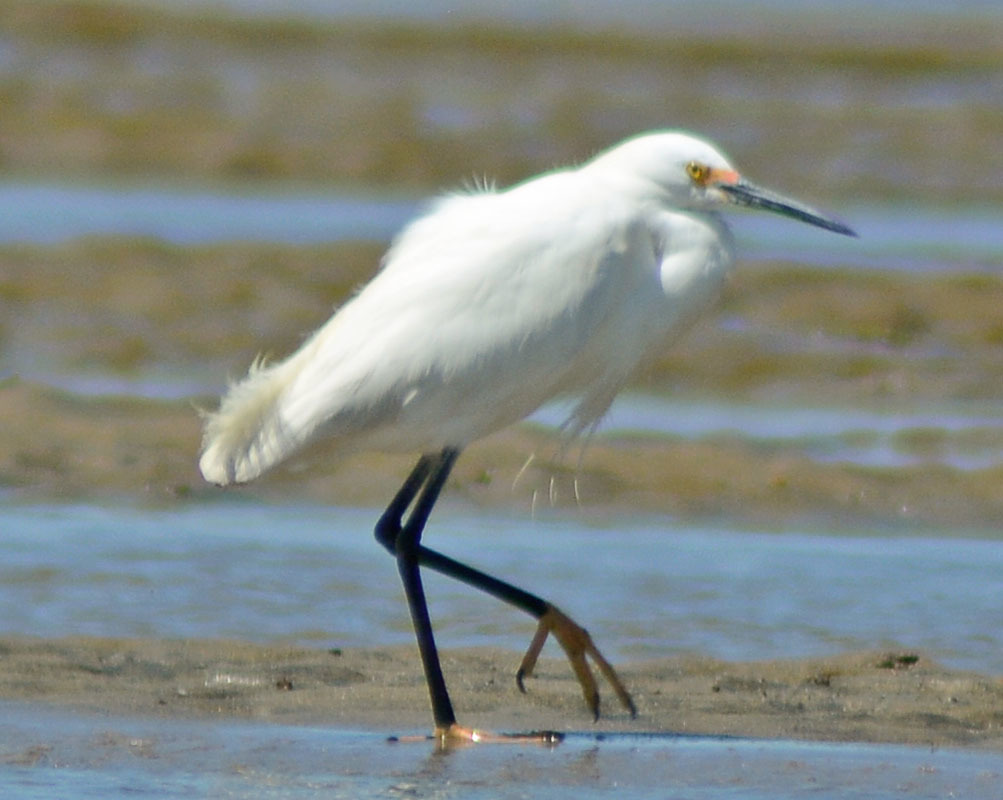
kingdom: Animalia
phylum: Chordata
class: Aves
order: Pelecaniformes
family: Ardeidae
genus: Egretta
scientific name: Egretta thula
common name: Snowy egret
